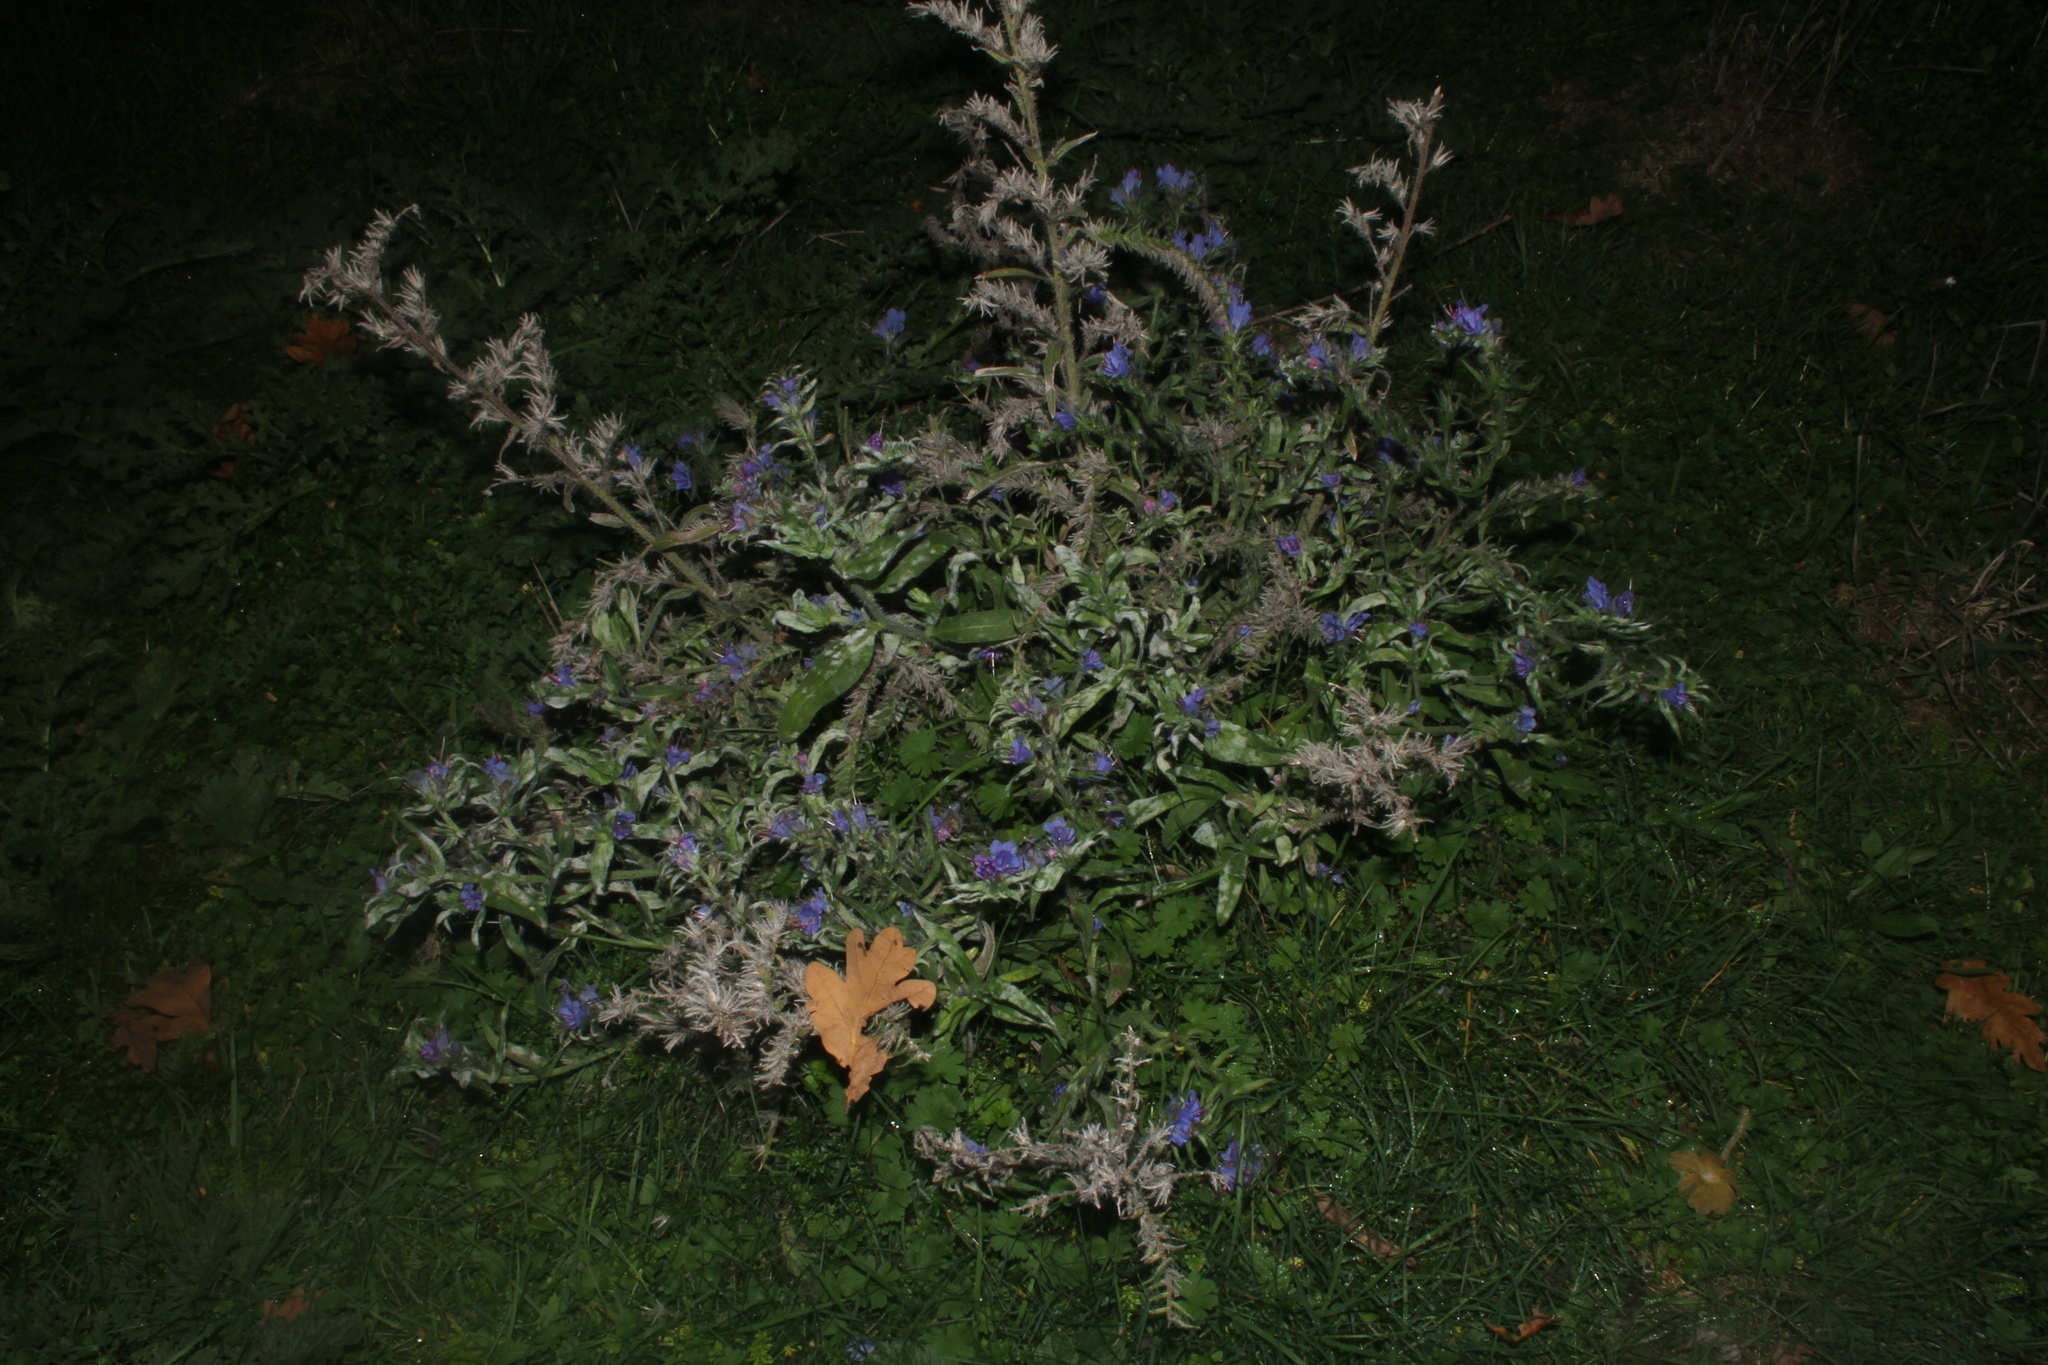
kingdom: Plantae
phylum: Tracheophyta
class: Magnoliopsida
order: Boraginales
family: Boraginaceae
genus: Echium
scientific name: Echium vulgare
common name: Common viper's bugloss
